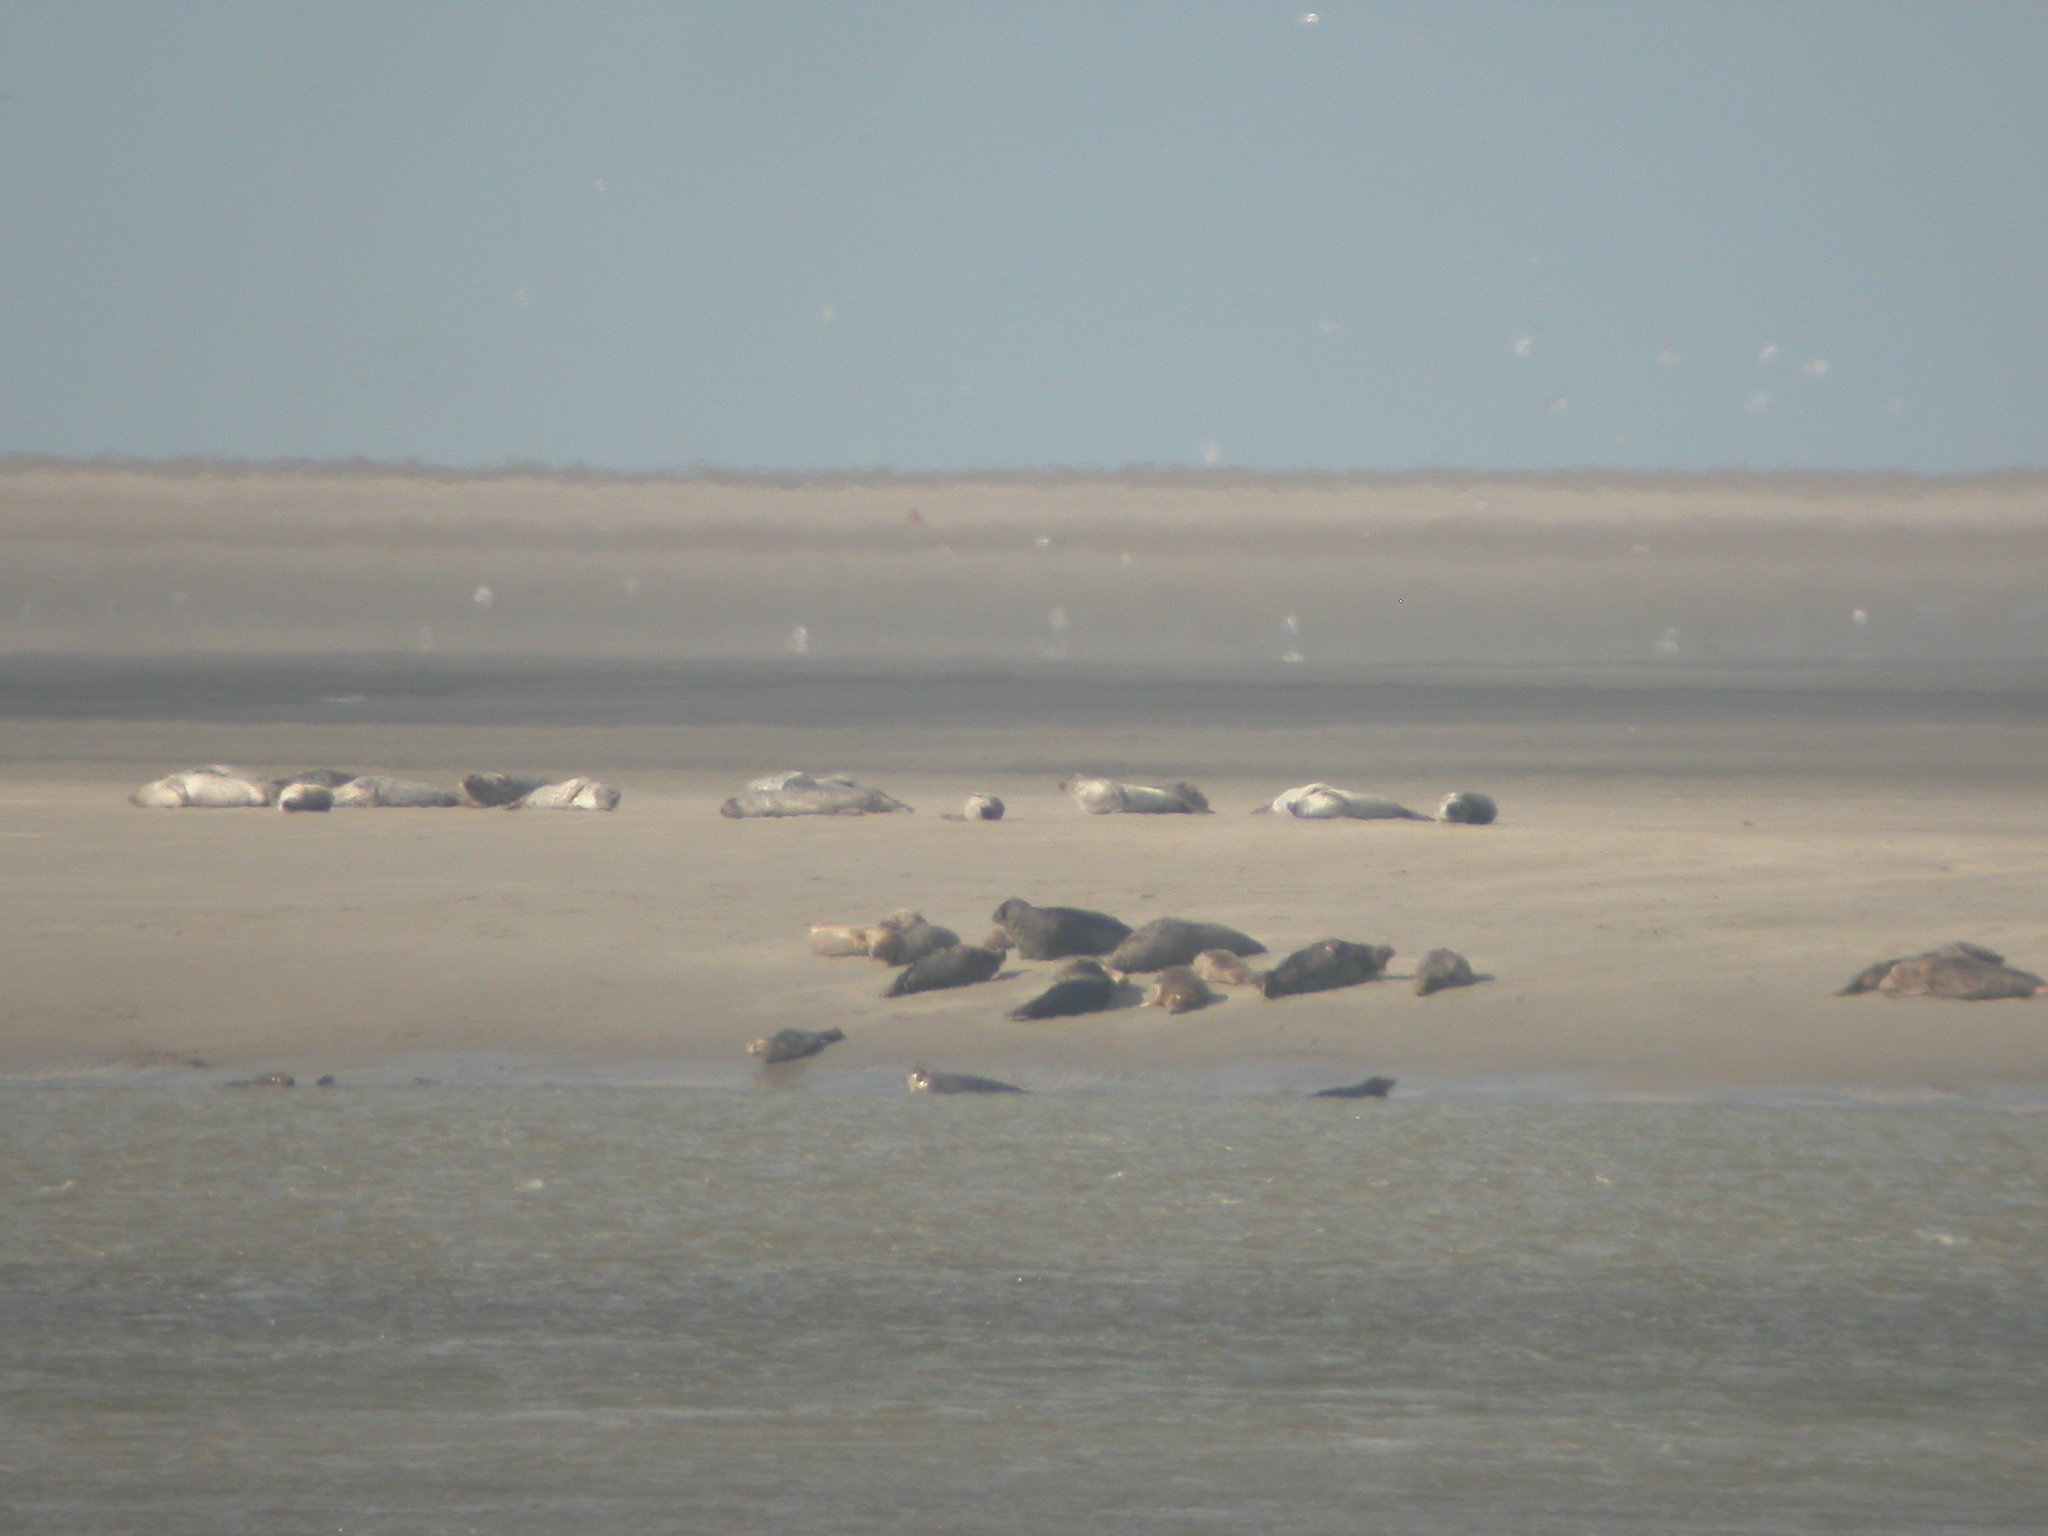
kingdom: Animalia
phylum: Chordata
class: Mammalia
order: Carnivora
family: Phocidae
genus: Phoca
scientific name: Phoca vitulina
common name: Harbor seal
